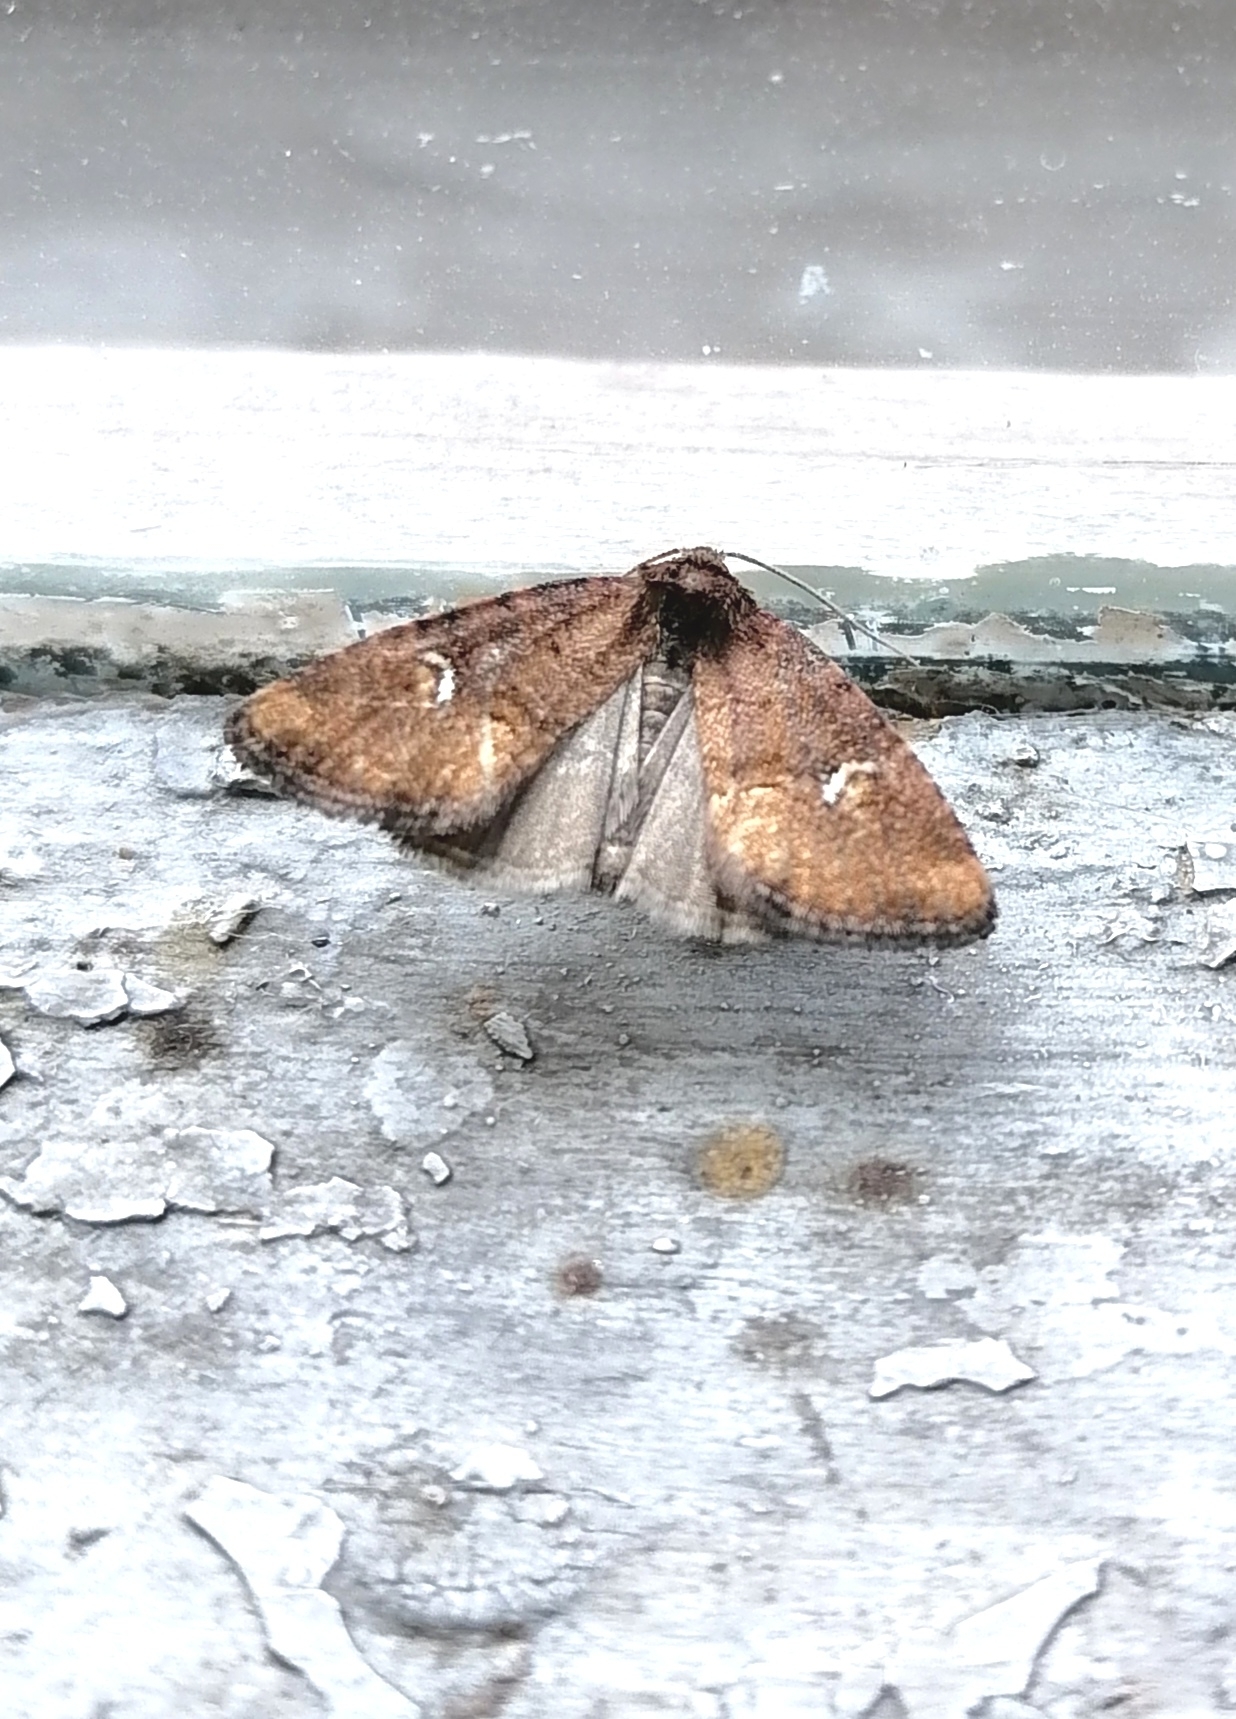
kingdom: Animalia
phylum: Arthropoda
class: Insecta
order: Lepidoptera
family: Noctuidae
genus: Oligia
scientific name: Oligia leuconephra
